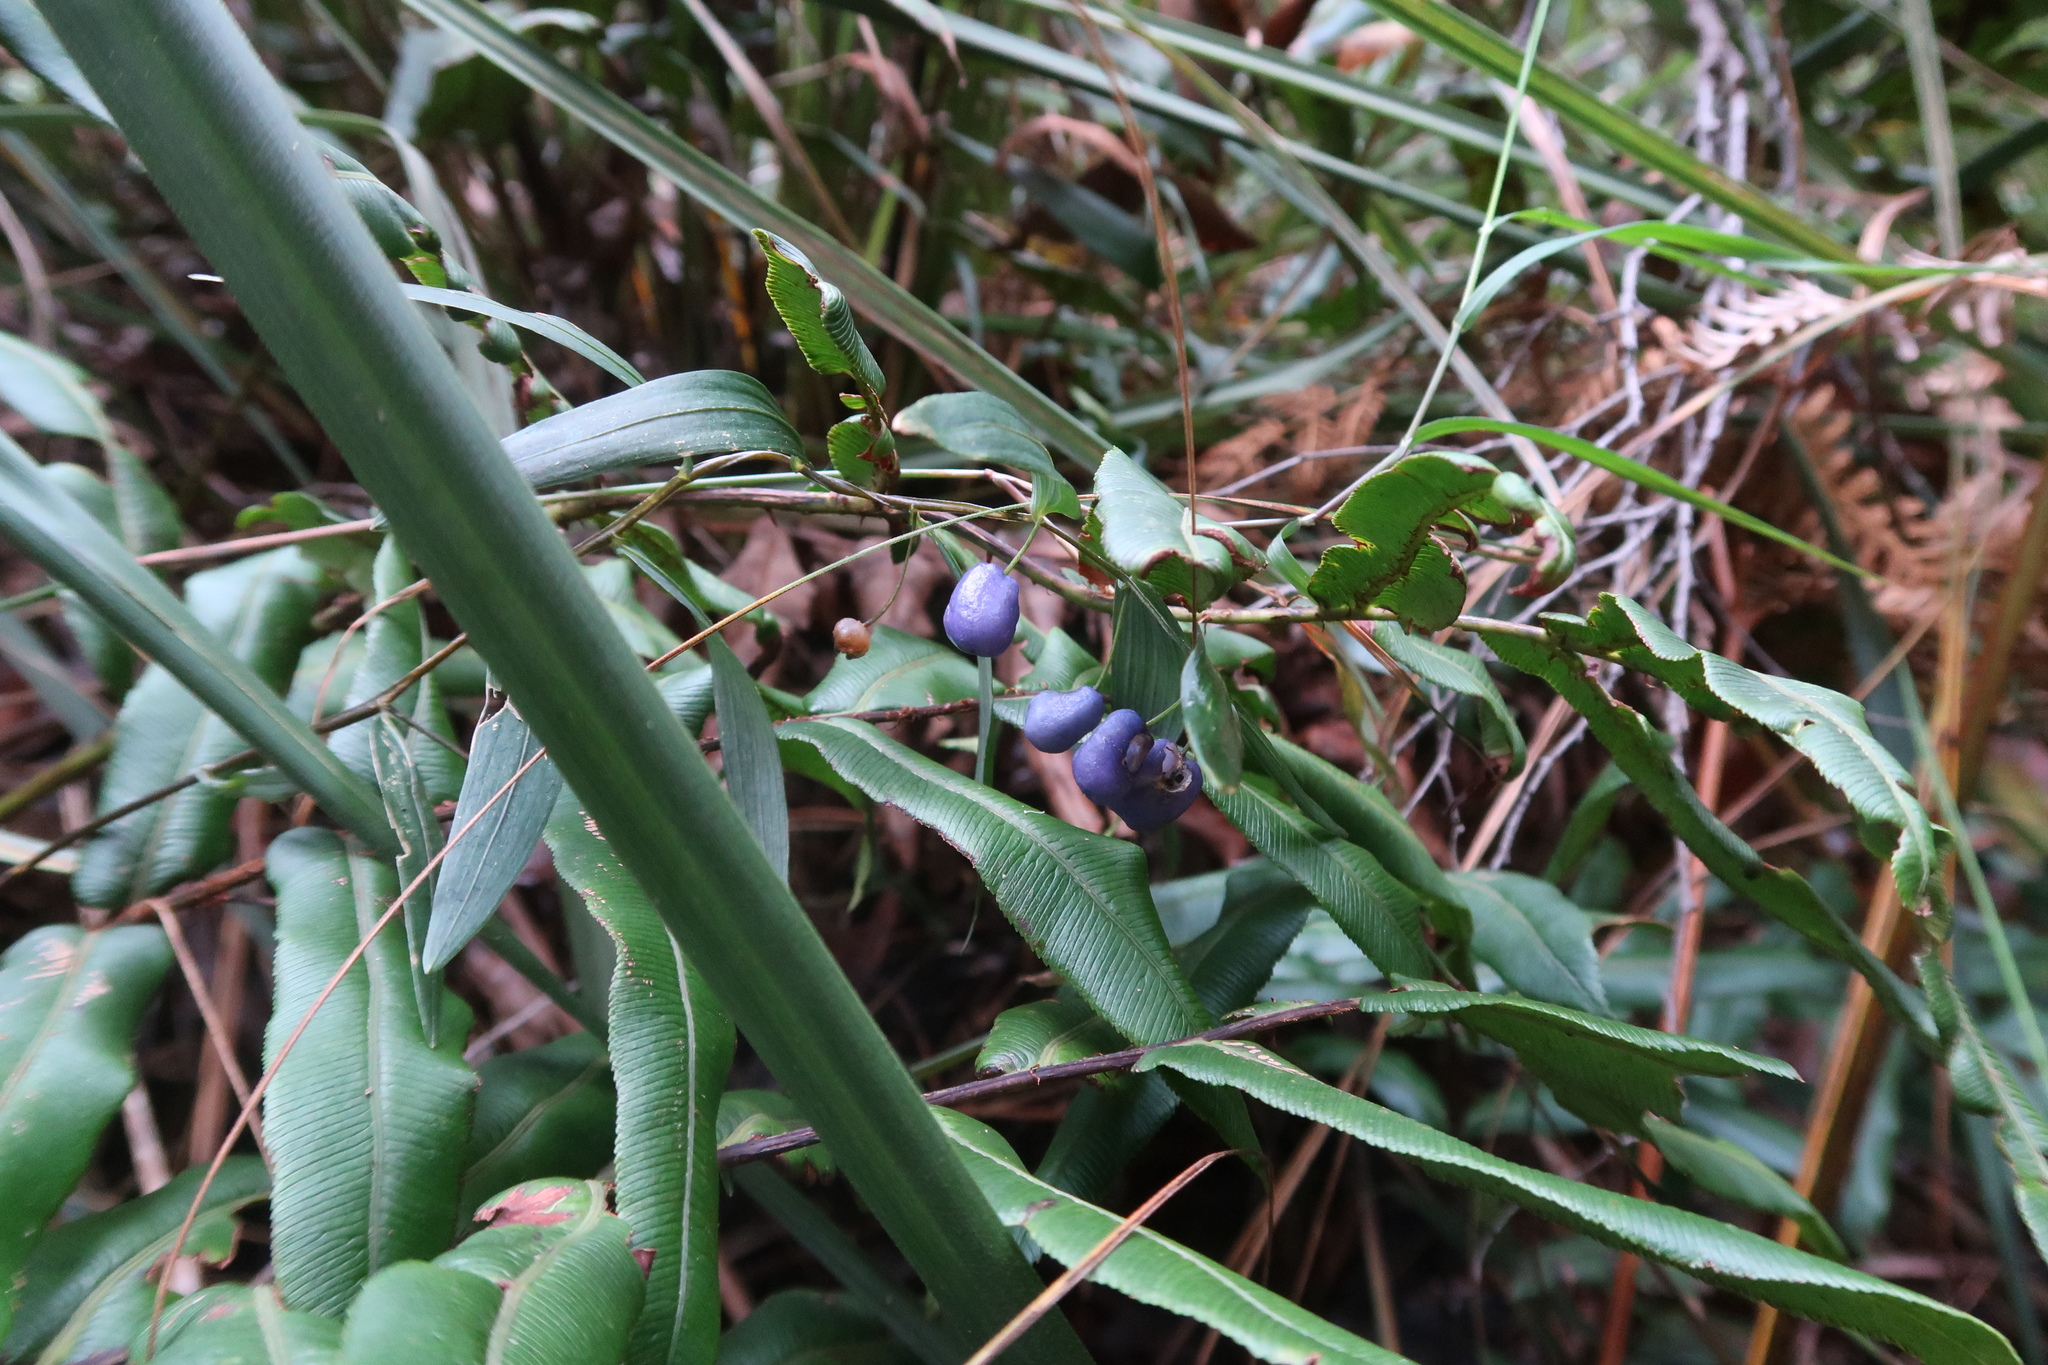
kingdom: Plantae
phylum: Tracheophyta
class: Liliopsida
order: Liliales
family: Alstroemeriaceae
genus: Drymophila
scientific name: Drymophila cyanocarpa
